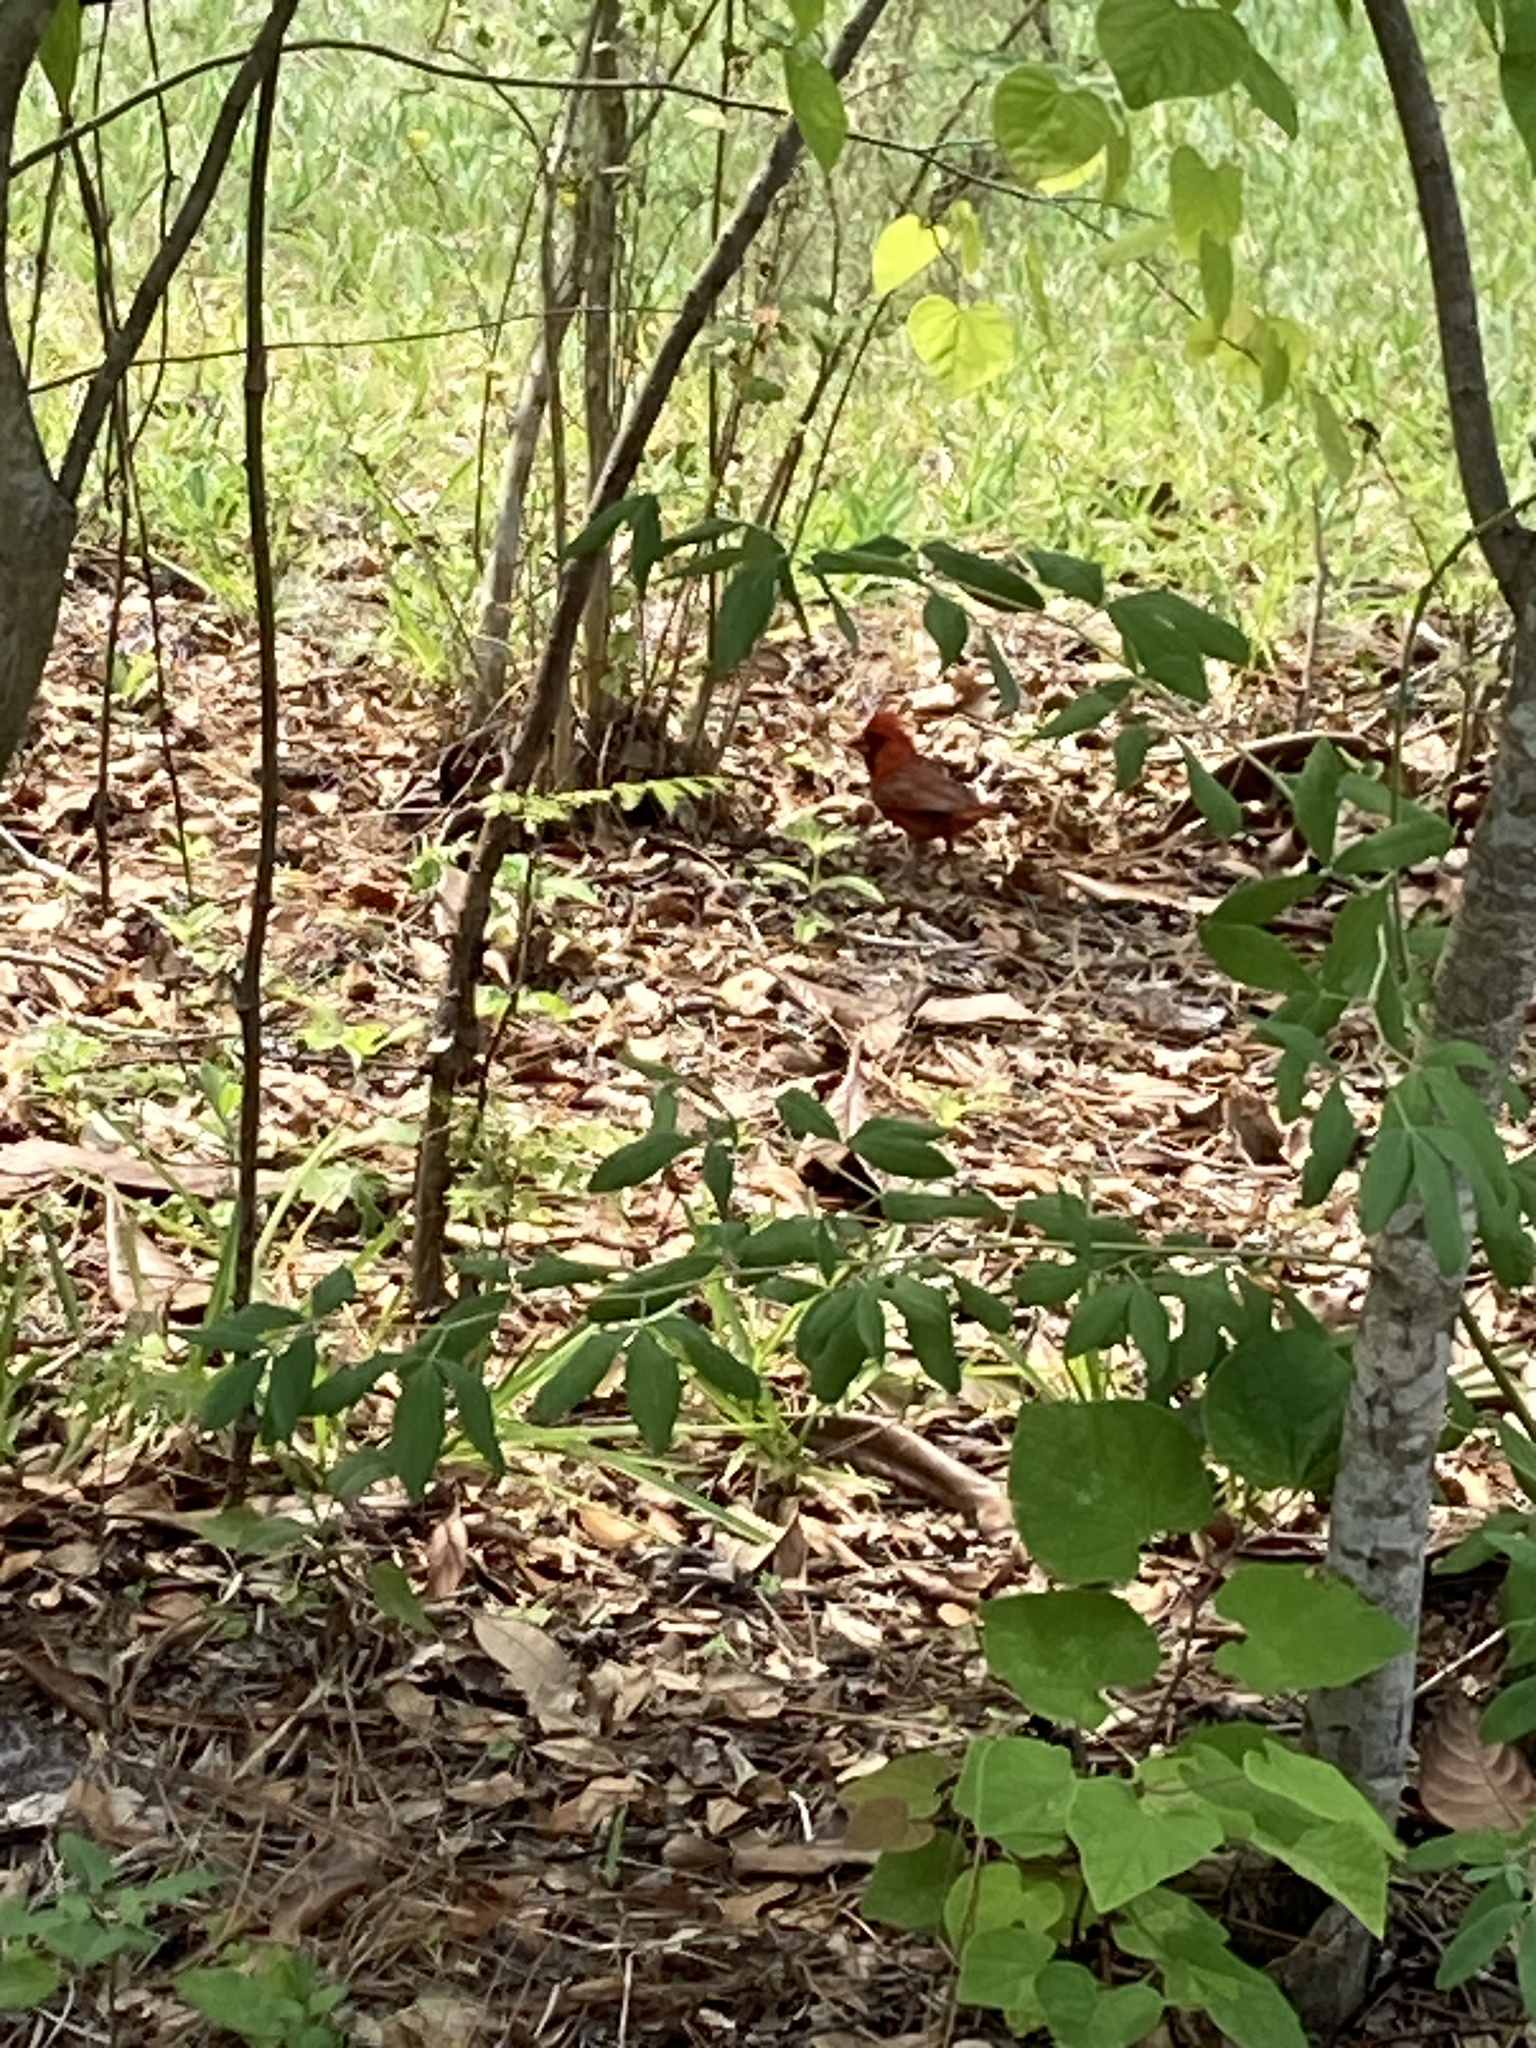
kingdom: Animalia
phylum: Chordata
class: Aves
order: Passeriformes
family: Cardinalidae
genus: Cardinalis
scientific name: Cardinalis cardinalis
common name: Northern cardinal
